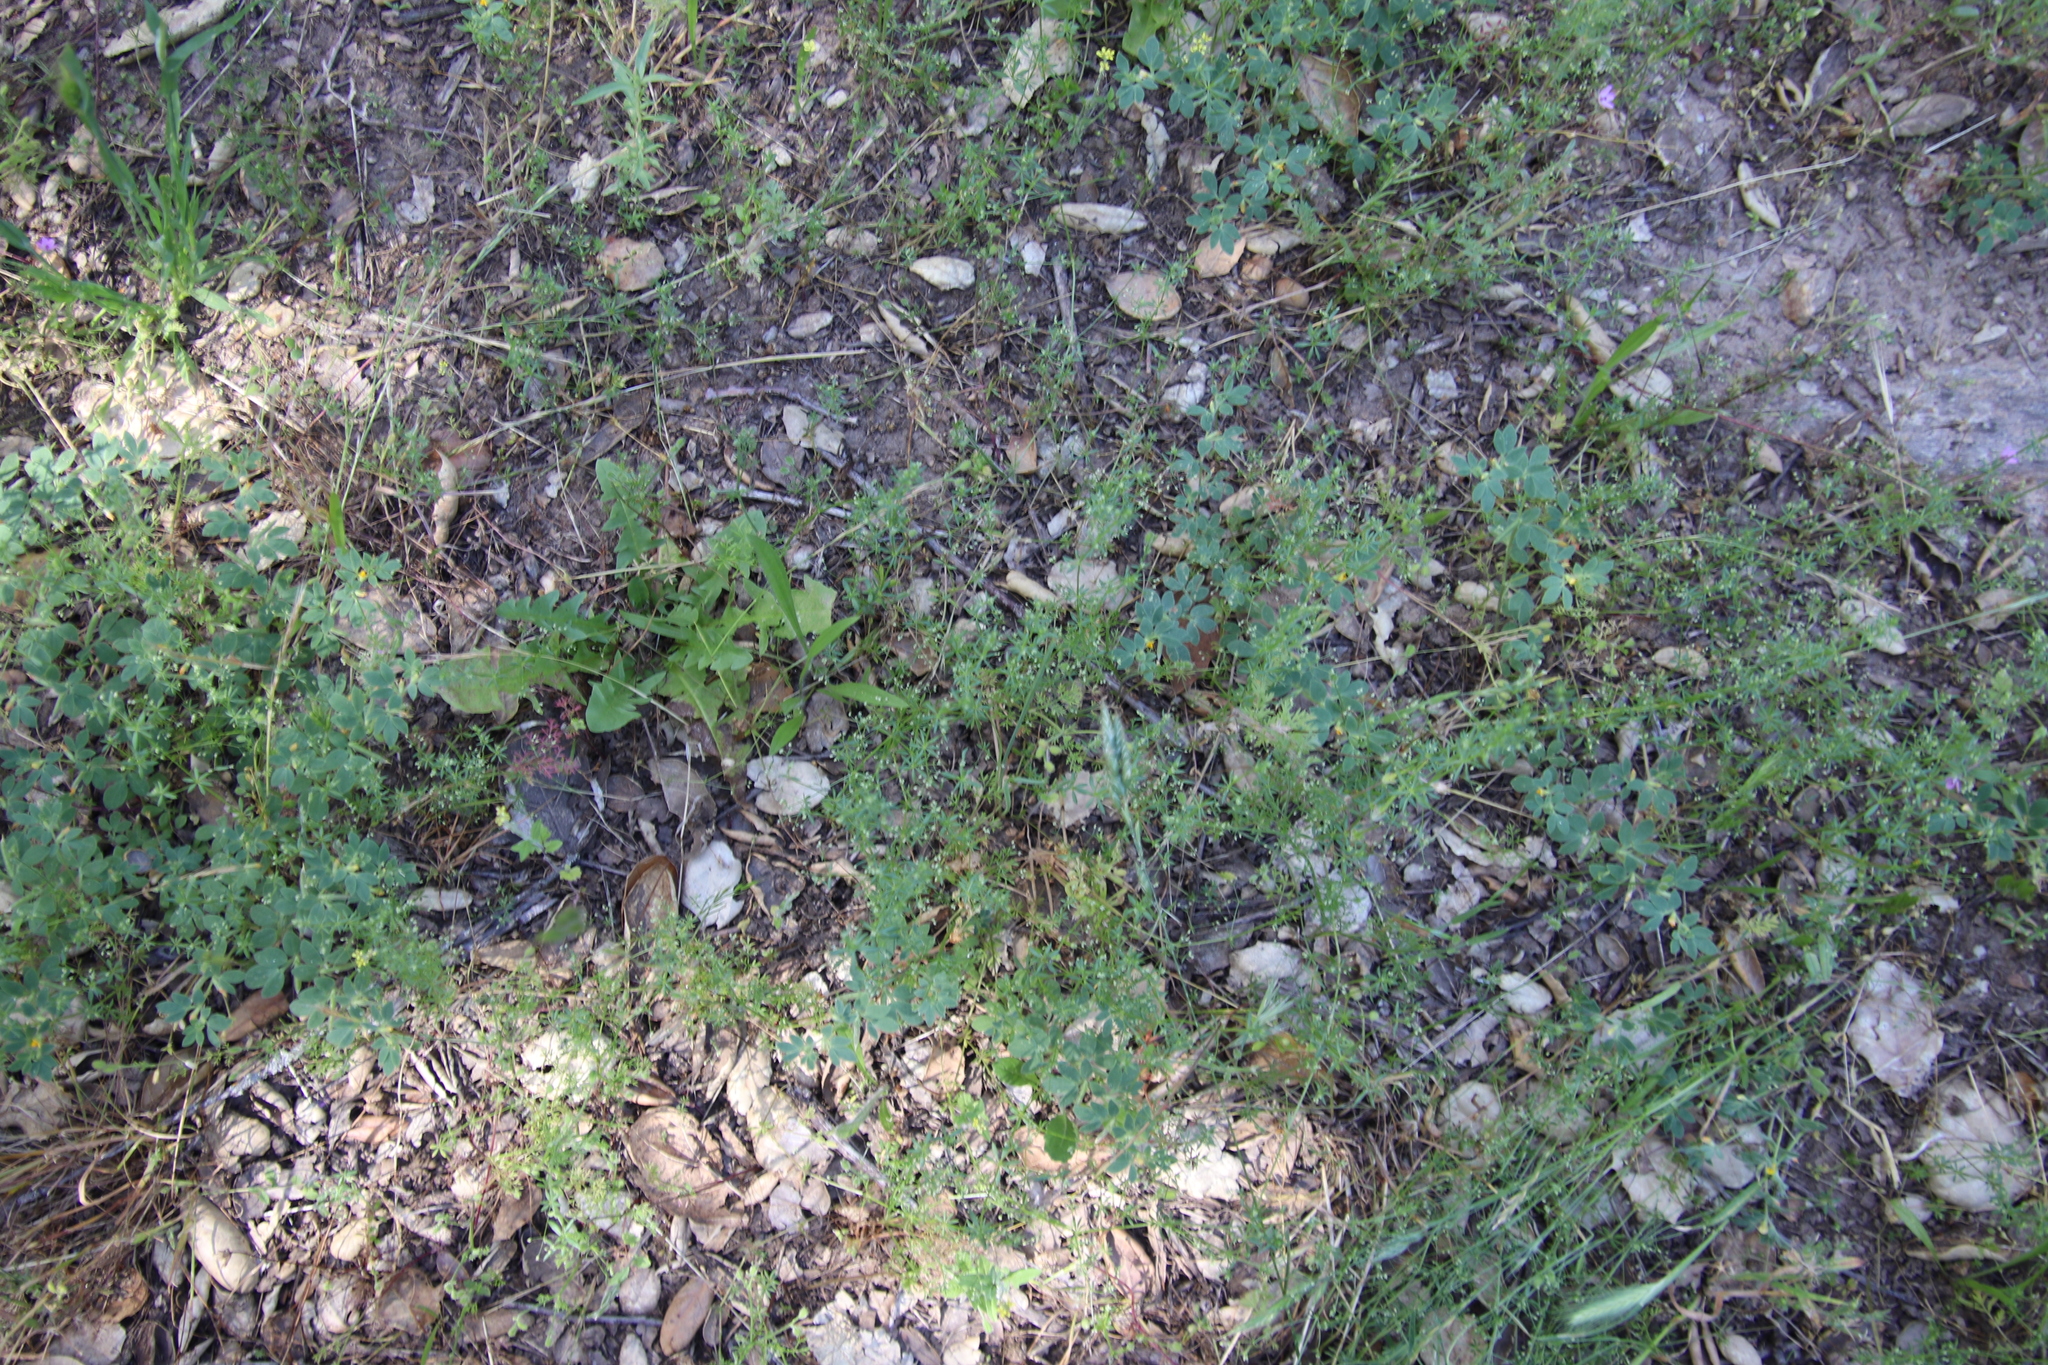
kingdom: Plantae
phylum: Tracheophyta
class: Magnoliopsida
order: Gentianales
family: Rubiaceae
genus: Galium
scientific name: Galium parisiense
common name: Wall bedstraw
